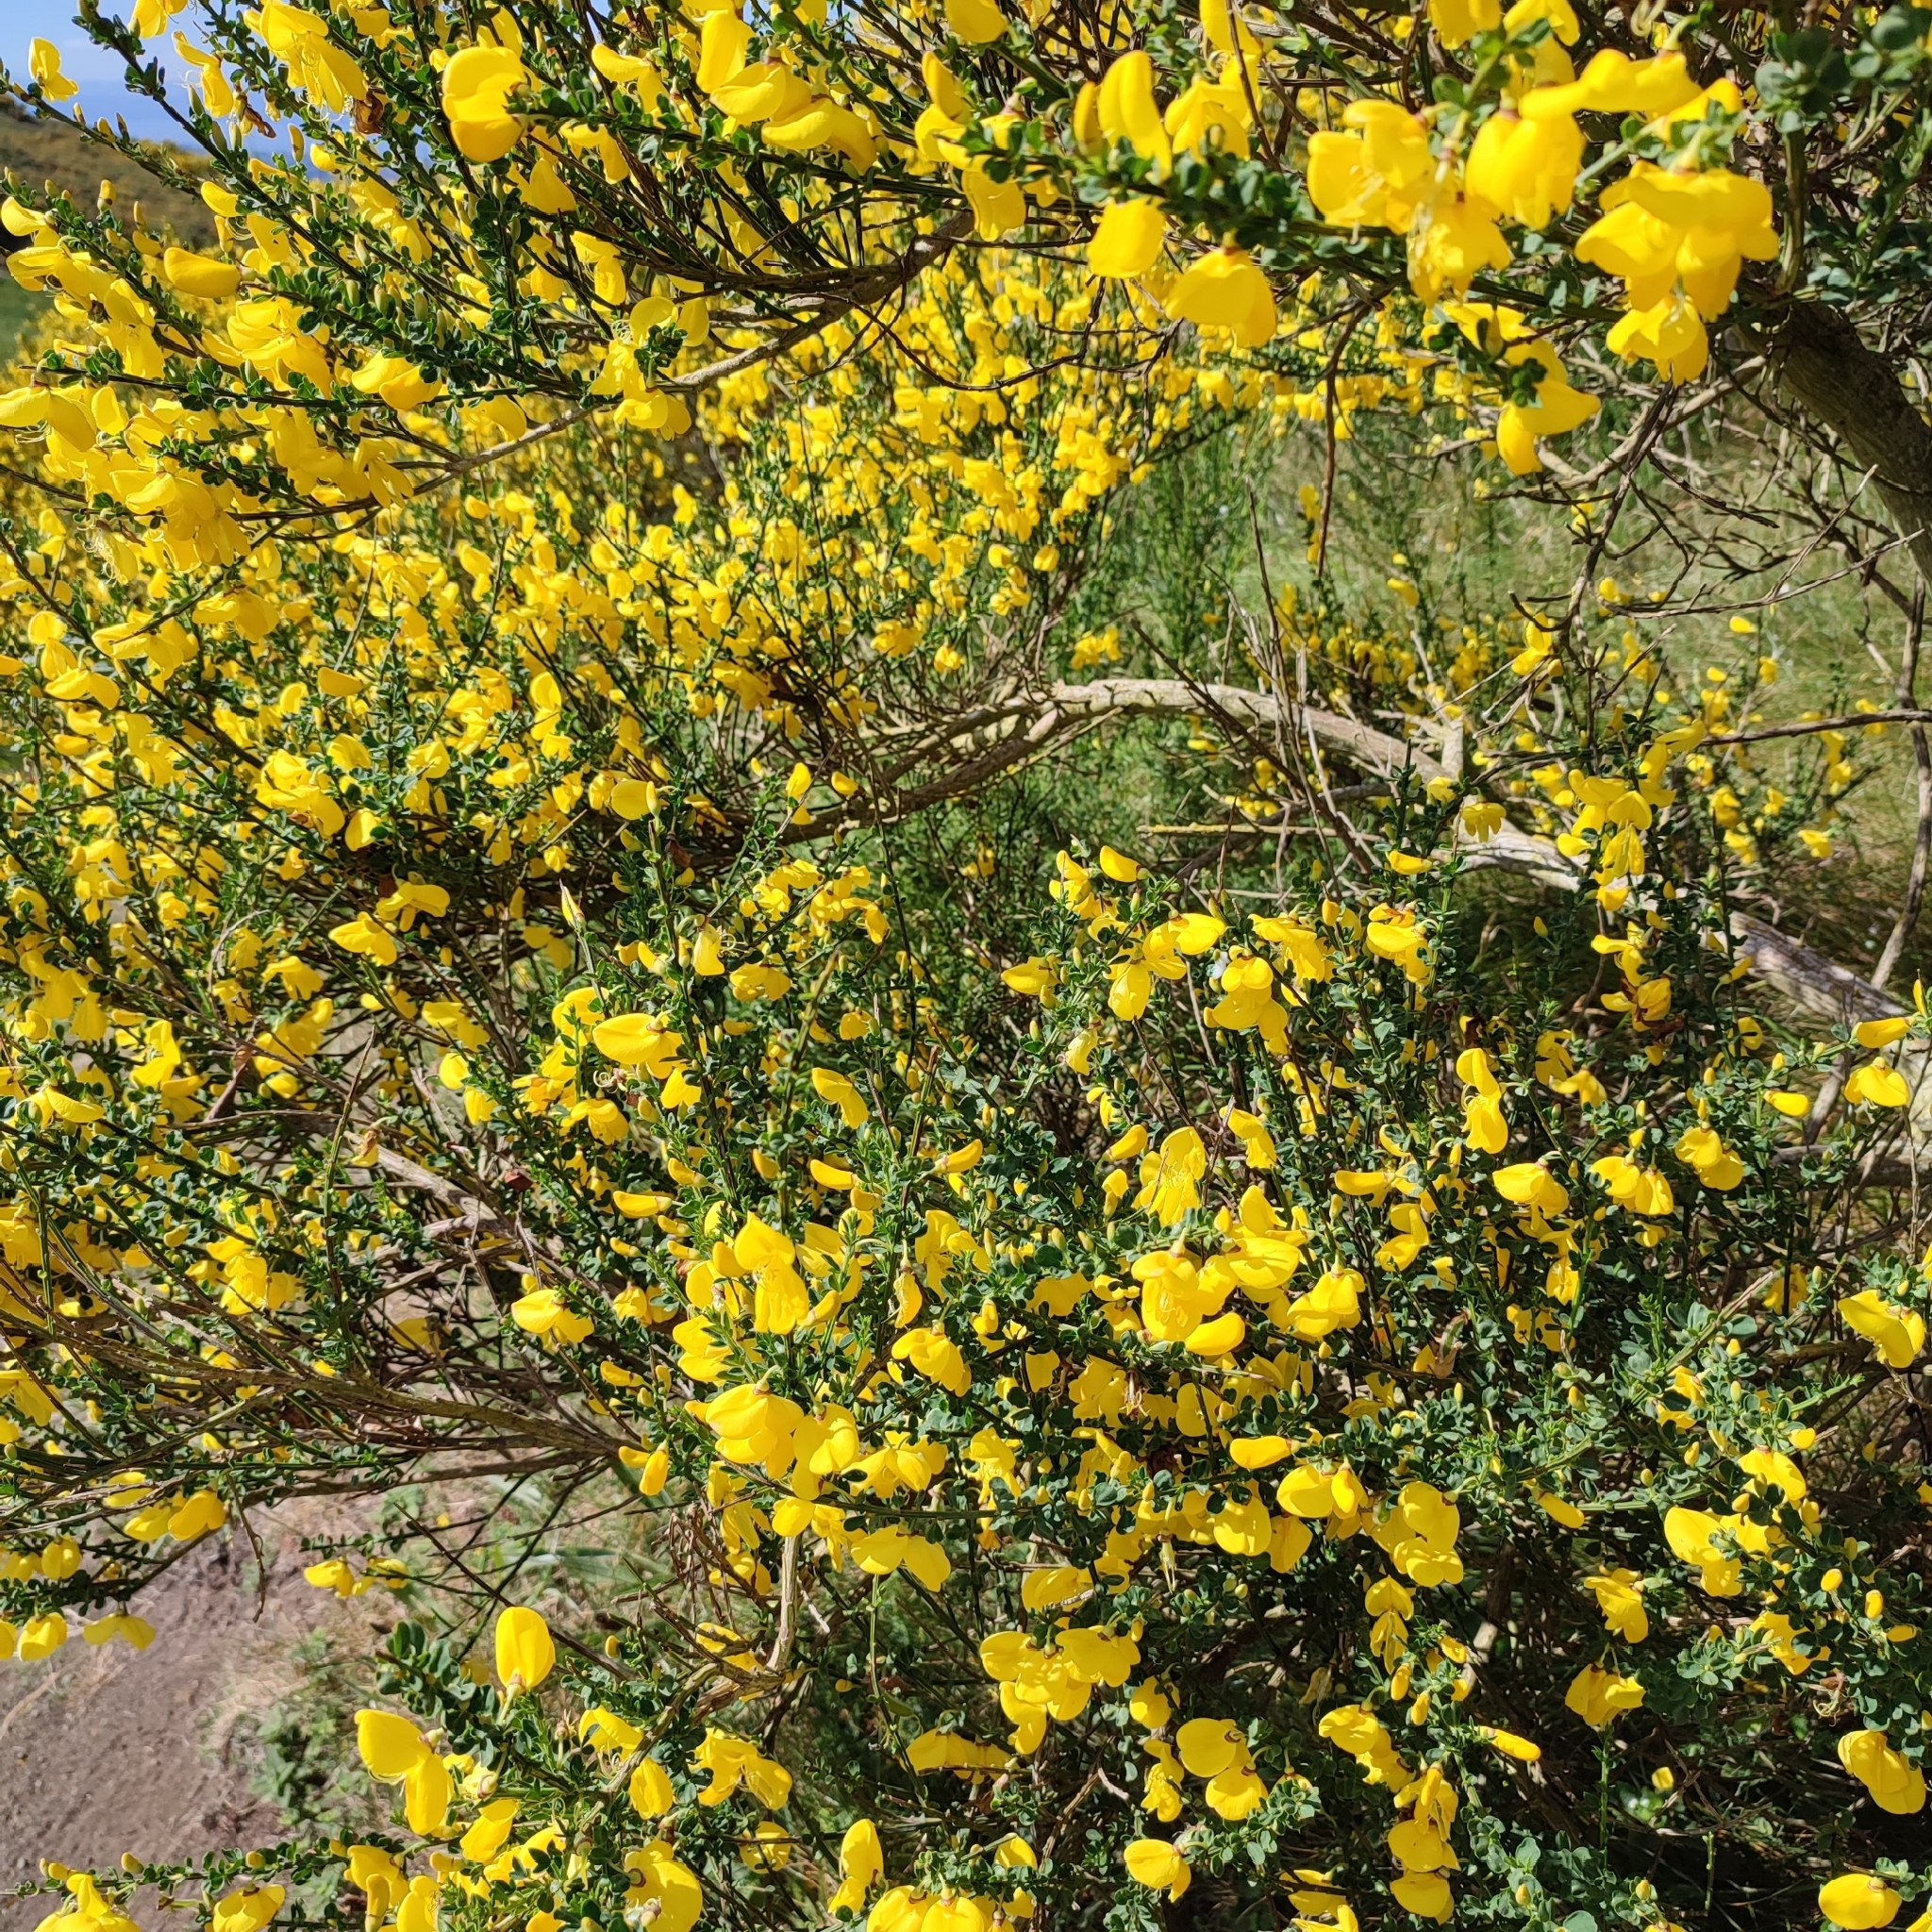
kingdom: Plantae
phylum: Tracheophyta
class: Magnoliopsida
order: Fabales
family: Fabaceae
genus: Cytisus
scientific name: Cytisus scoparius
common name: Scotch broom
